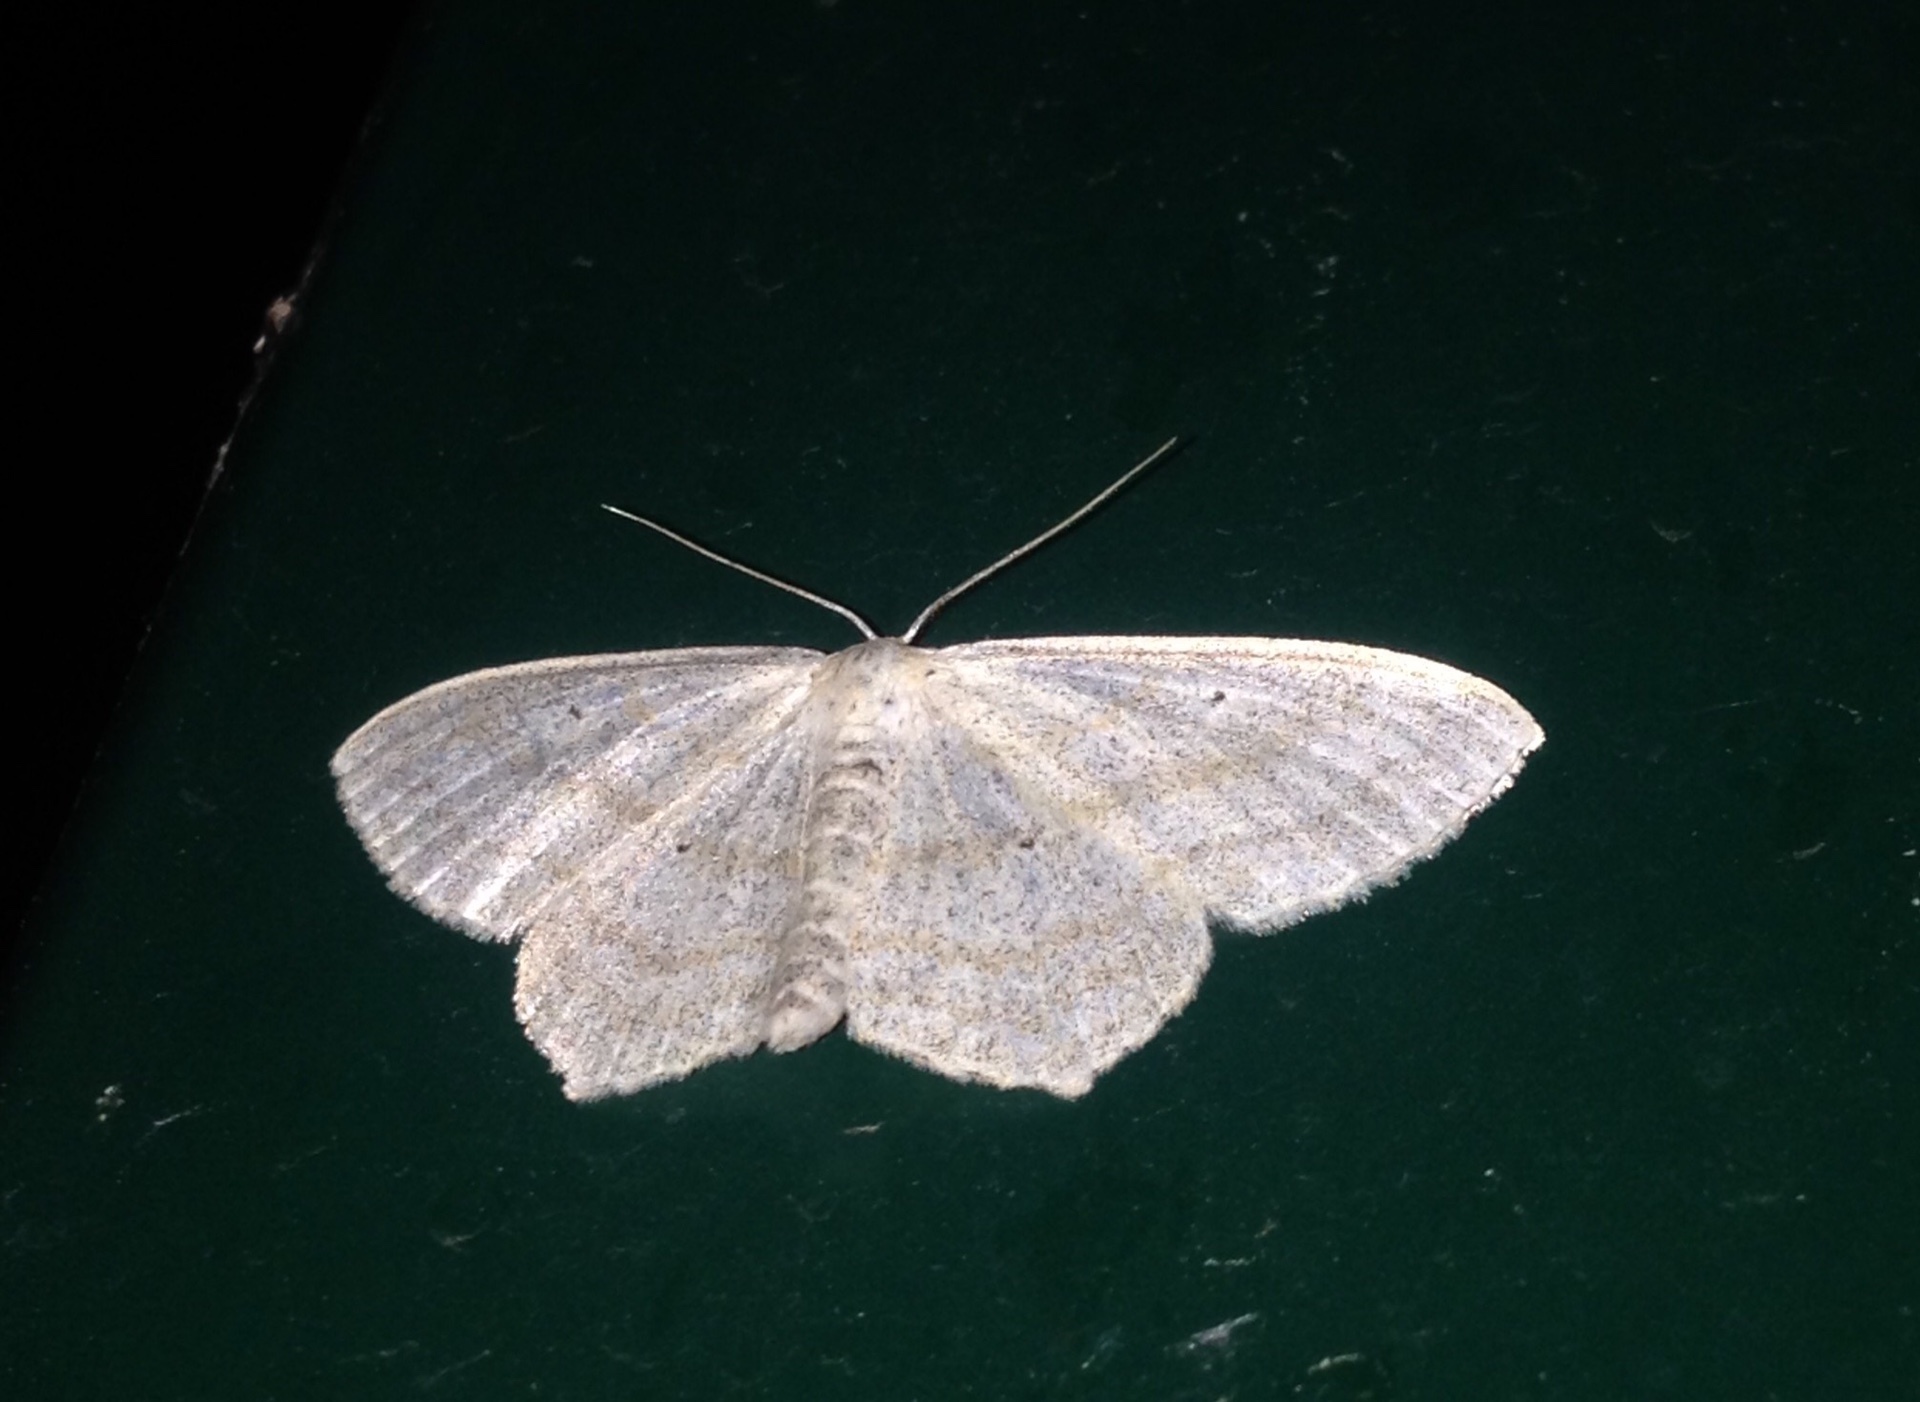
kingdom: Animalia
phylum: Arthropoda
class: Insecta
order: Lepidoptera
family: Geometridae
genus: Scopula
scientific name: Scopula nigropunctata
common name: Sub-angled wave
